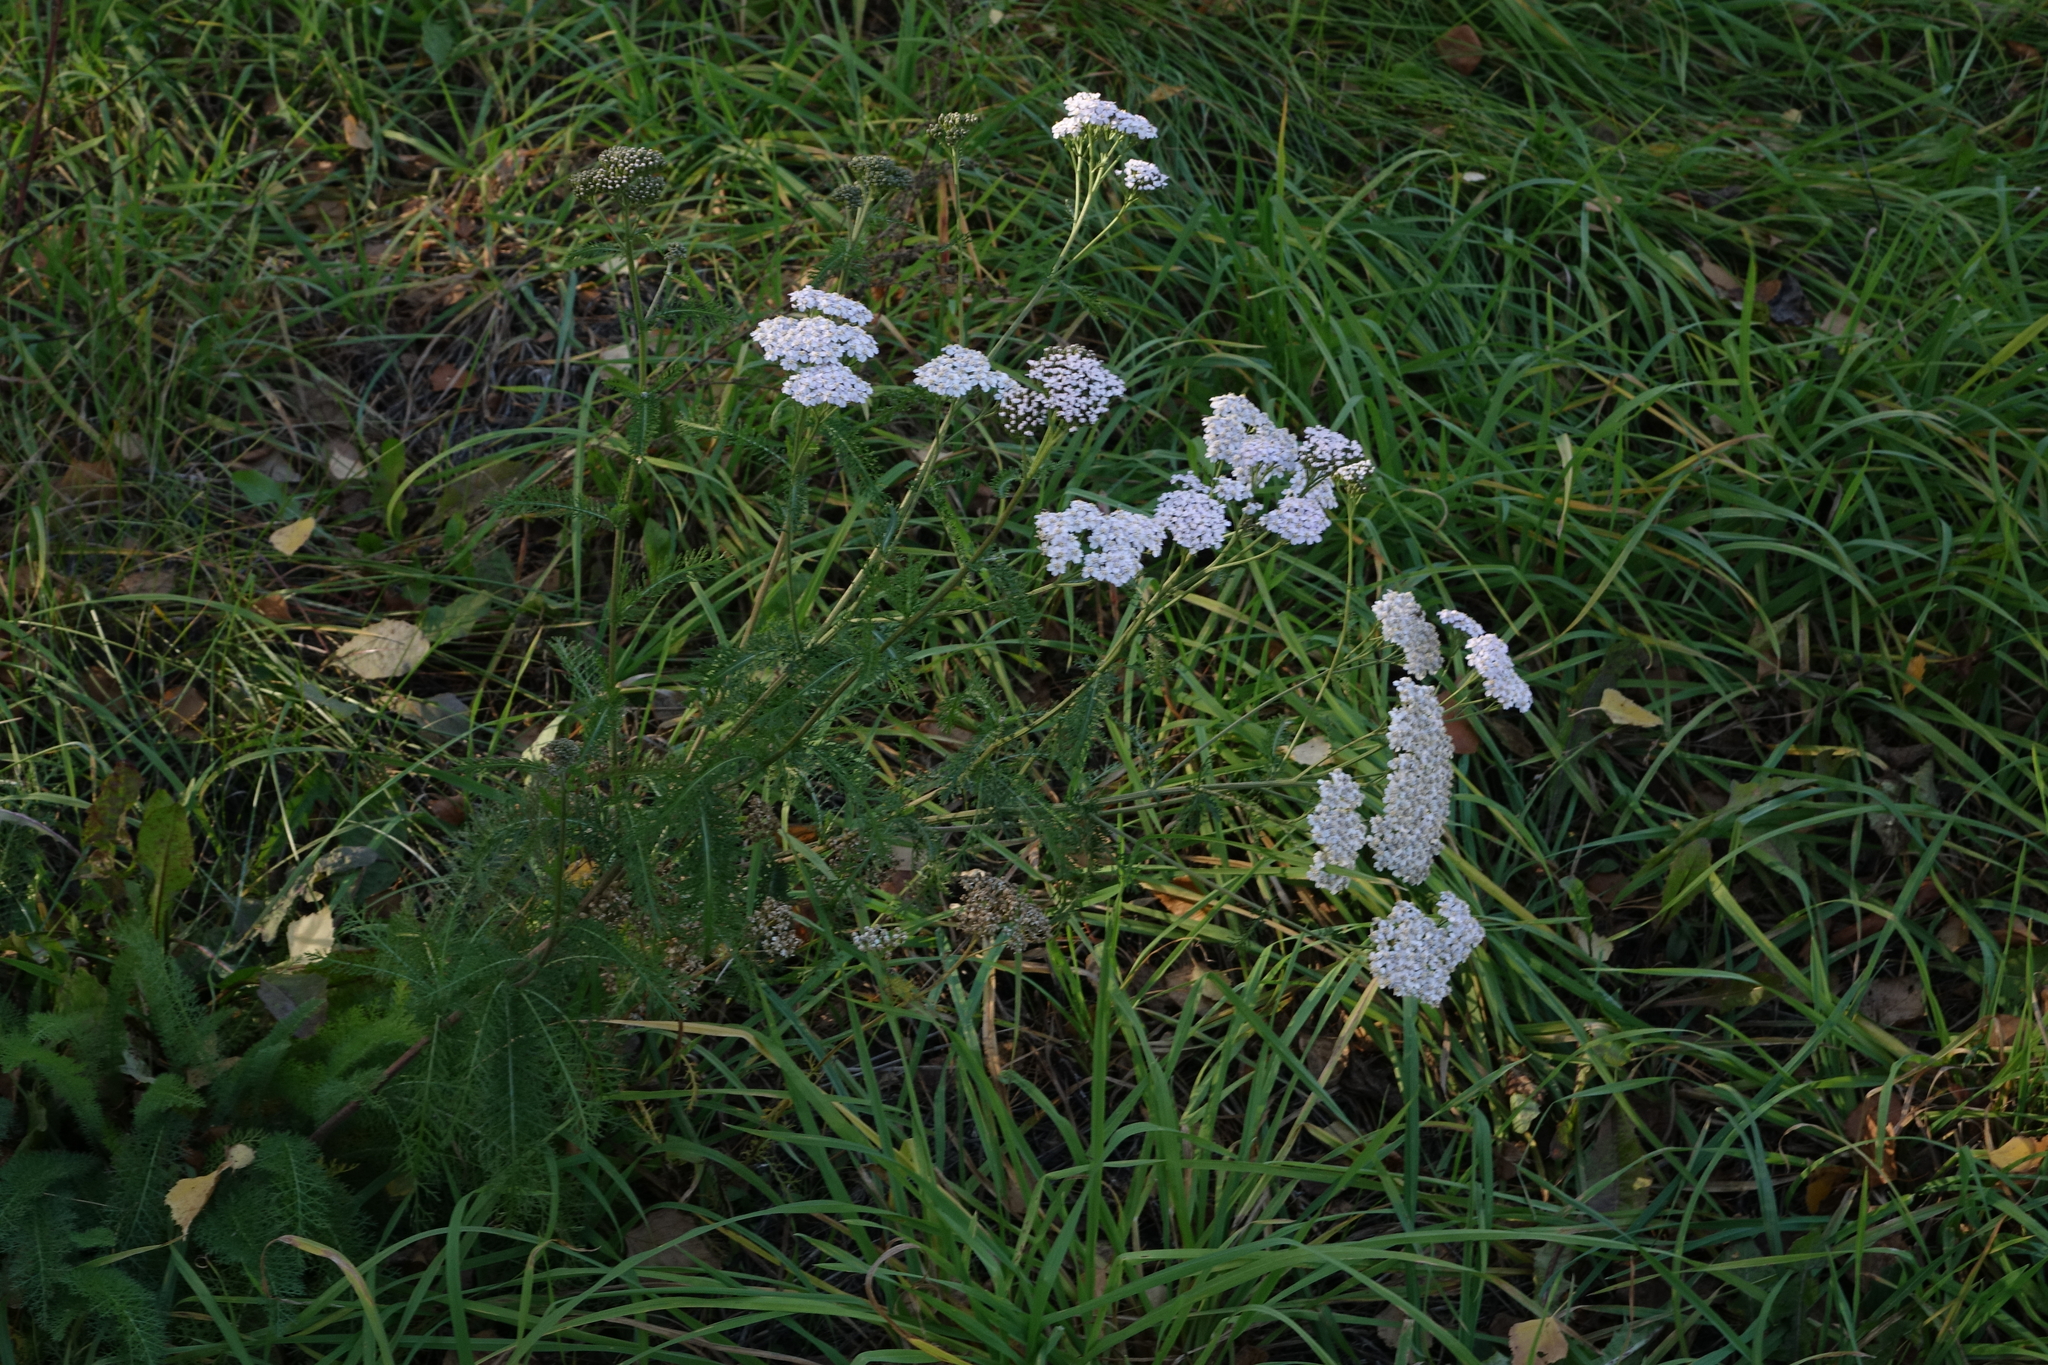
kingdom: Plantae
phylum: Tracheophyta
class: Magnoliopsida
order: Asterales
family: Asteraceae
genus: Achillea
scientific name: Achillea millefolium
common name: Yarrow
